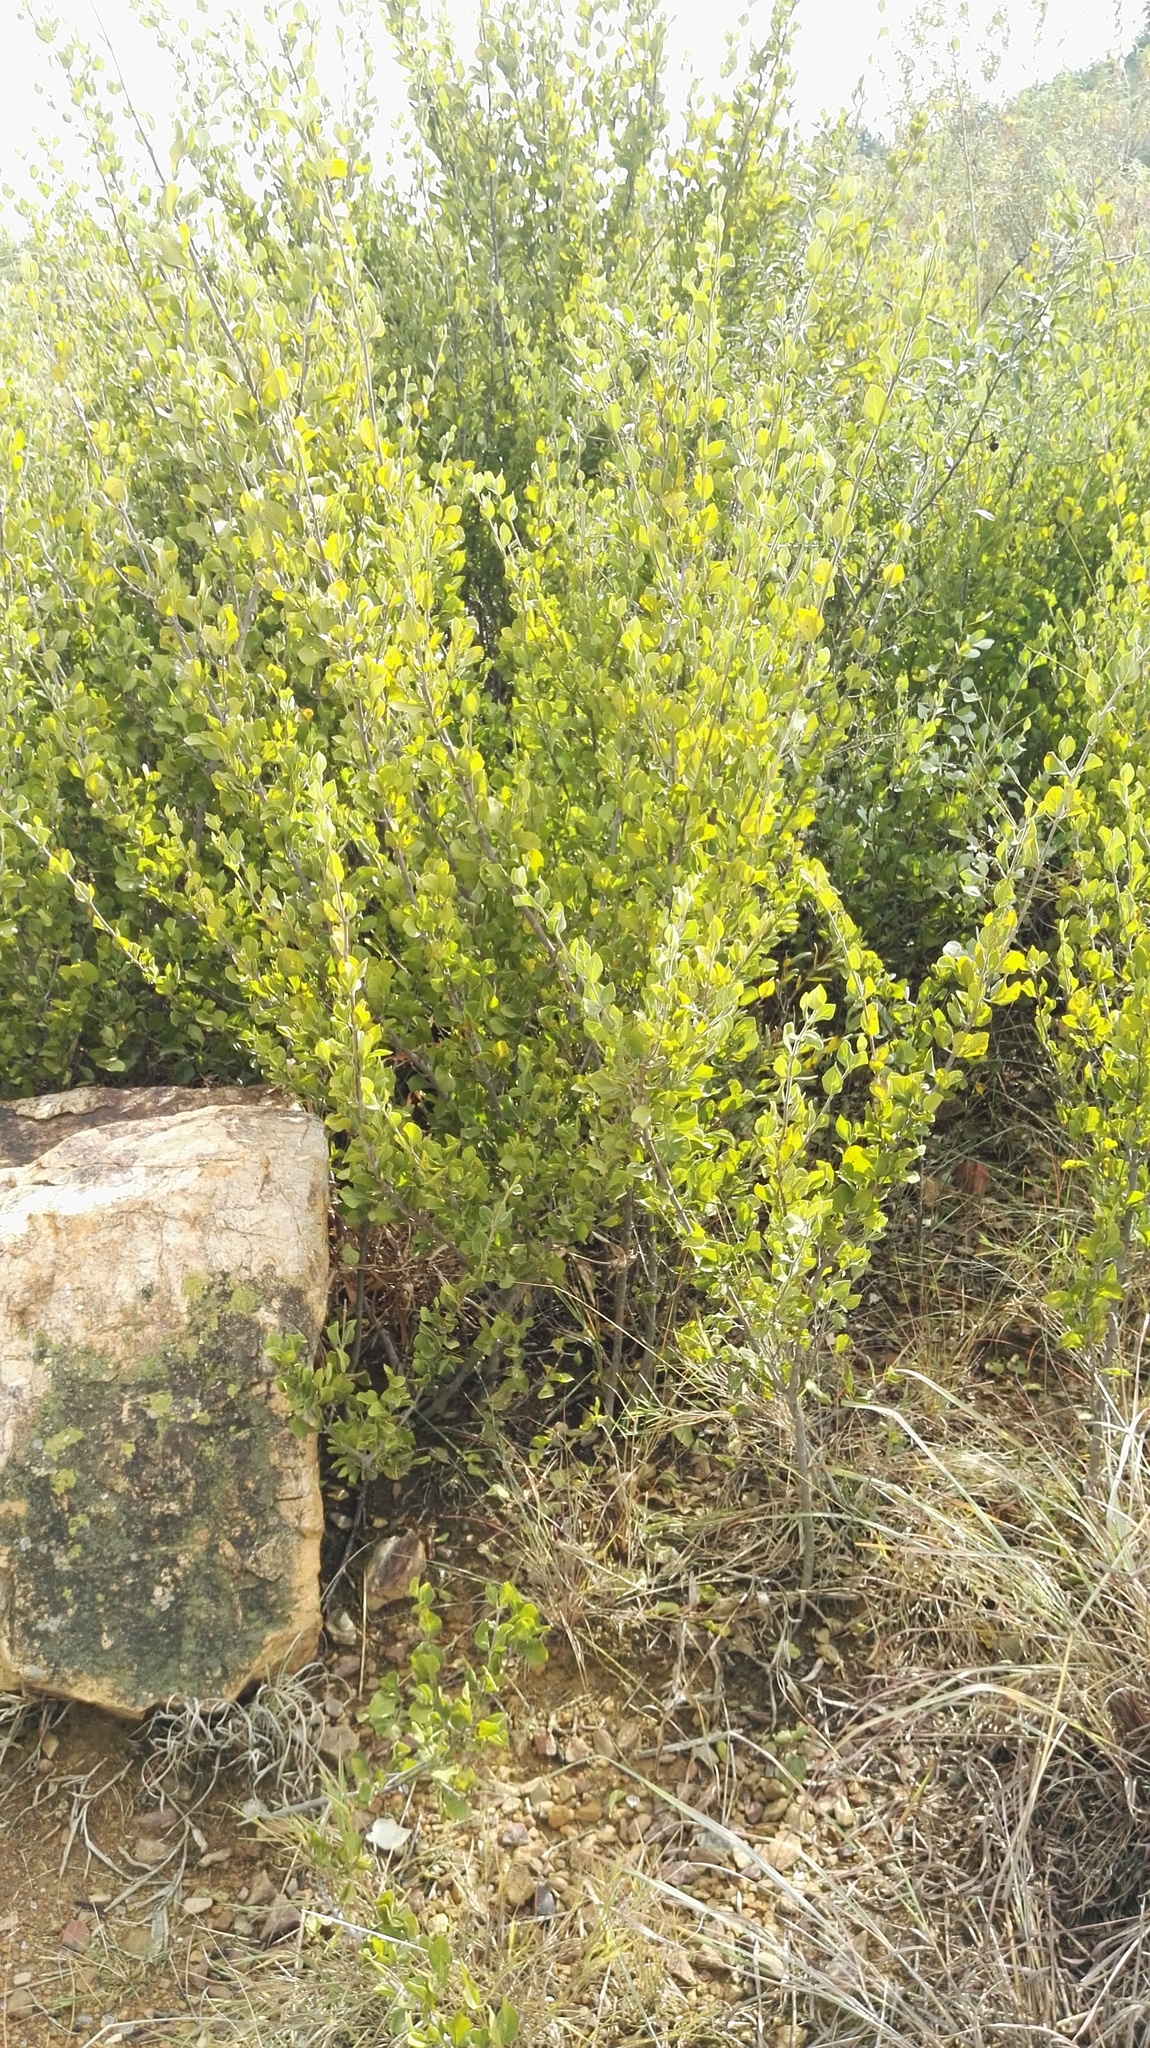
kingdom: Plantae
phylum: Tracheophyta
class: Magnoliopsida
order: Gentianales
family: Rubiaceae
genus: Afrocanthium
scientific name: Afrocanthium gilfillanii
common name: Velvet rock-alder
